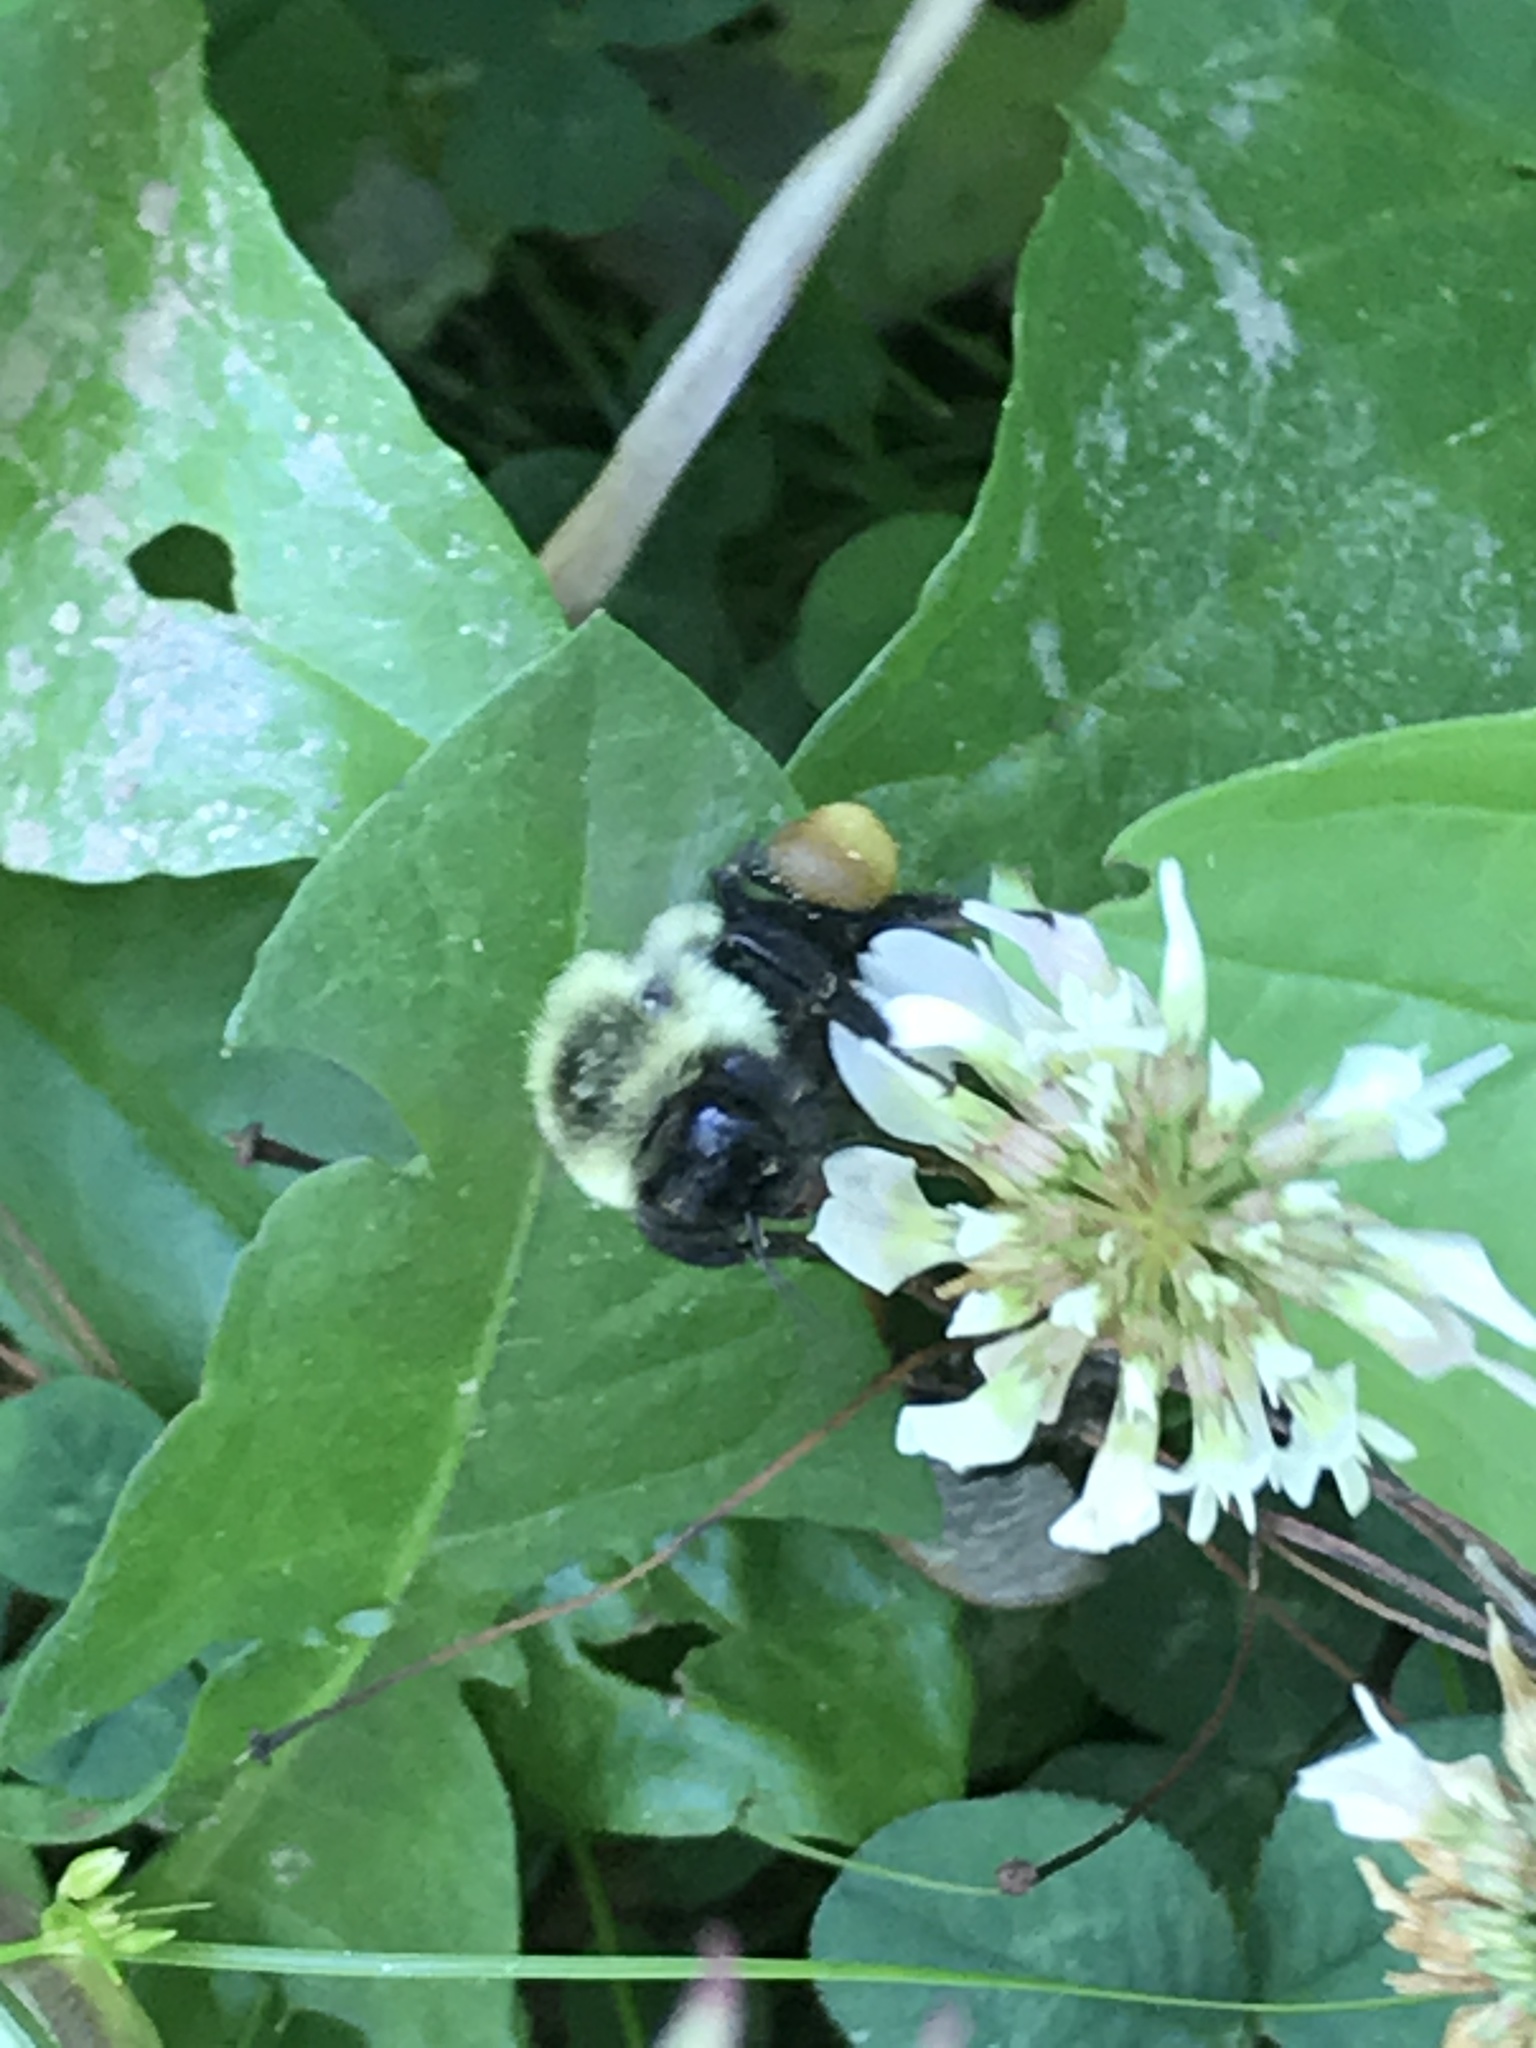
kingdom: Animalia
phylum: Arthropoda
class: Insecta
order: Hymenoptera
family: Apidae
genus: Bombus
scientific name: Bombus impatiens
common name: Common eastern bumble bee
